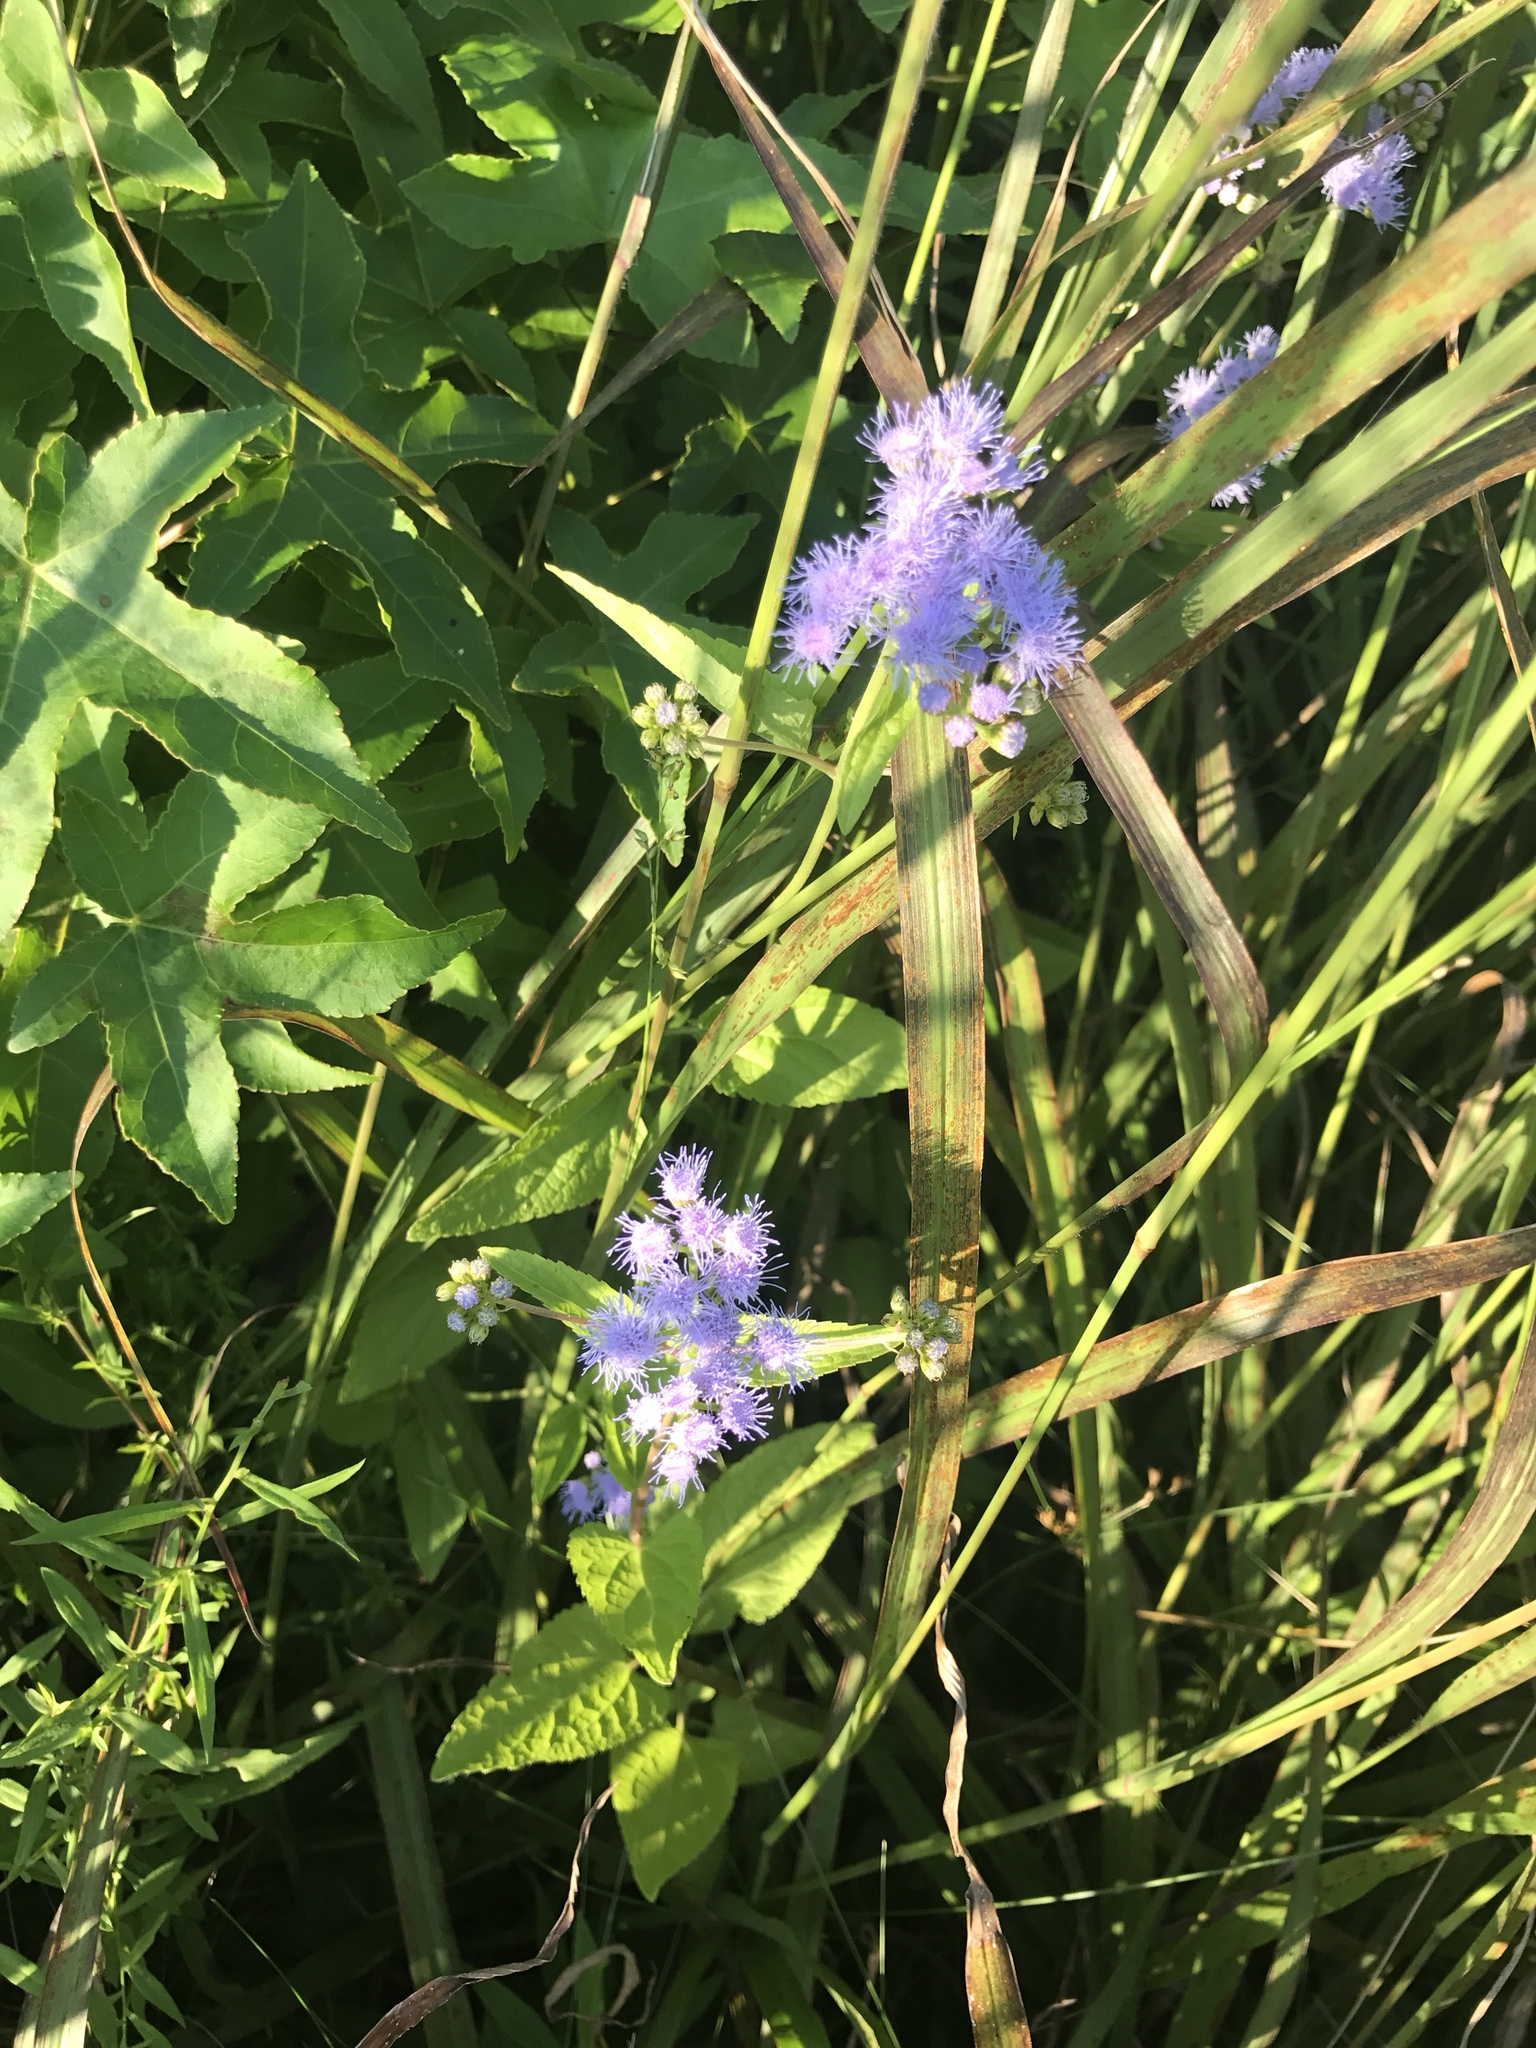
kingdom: Plantae
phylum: Tracheophyta
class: Magnoliopsida
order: Asterales
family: Asteraceae
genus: Conoclinium
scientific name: Conoclinium coelestinum
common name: Blue mistflower
